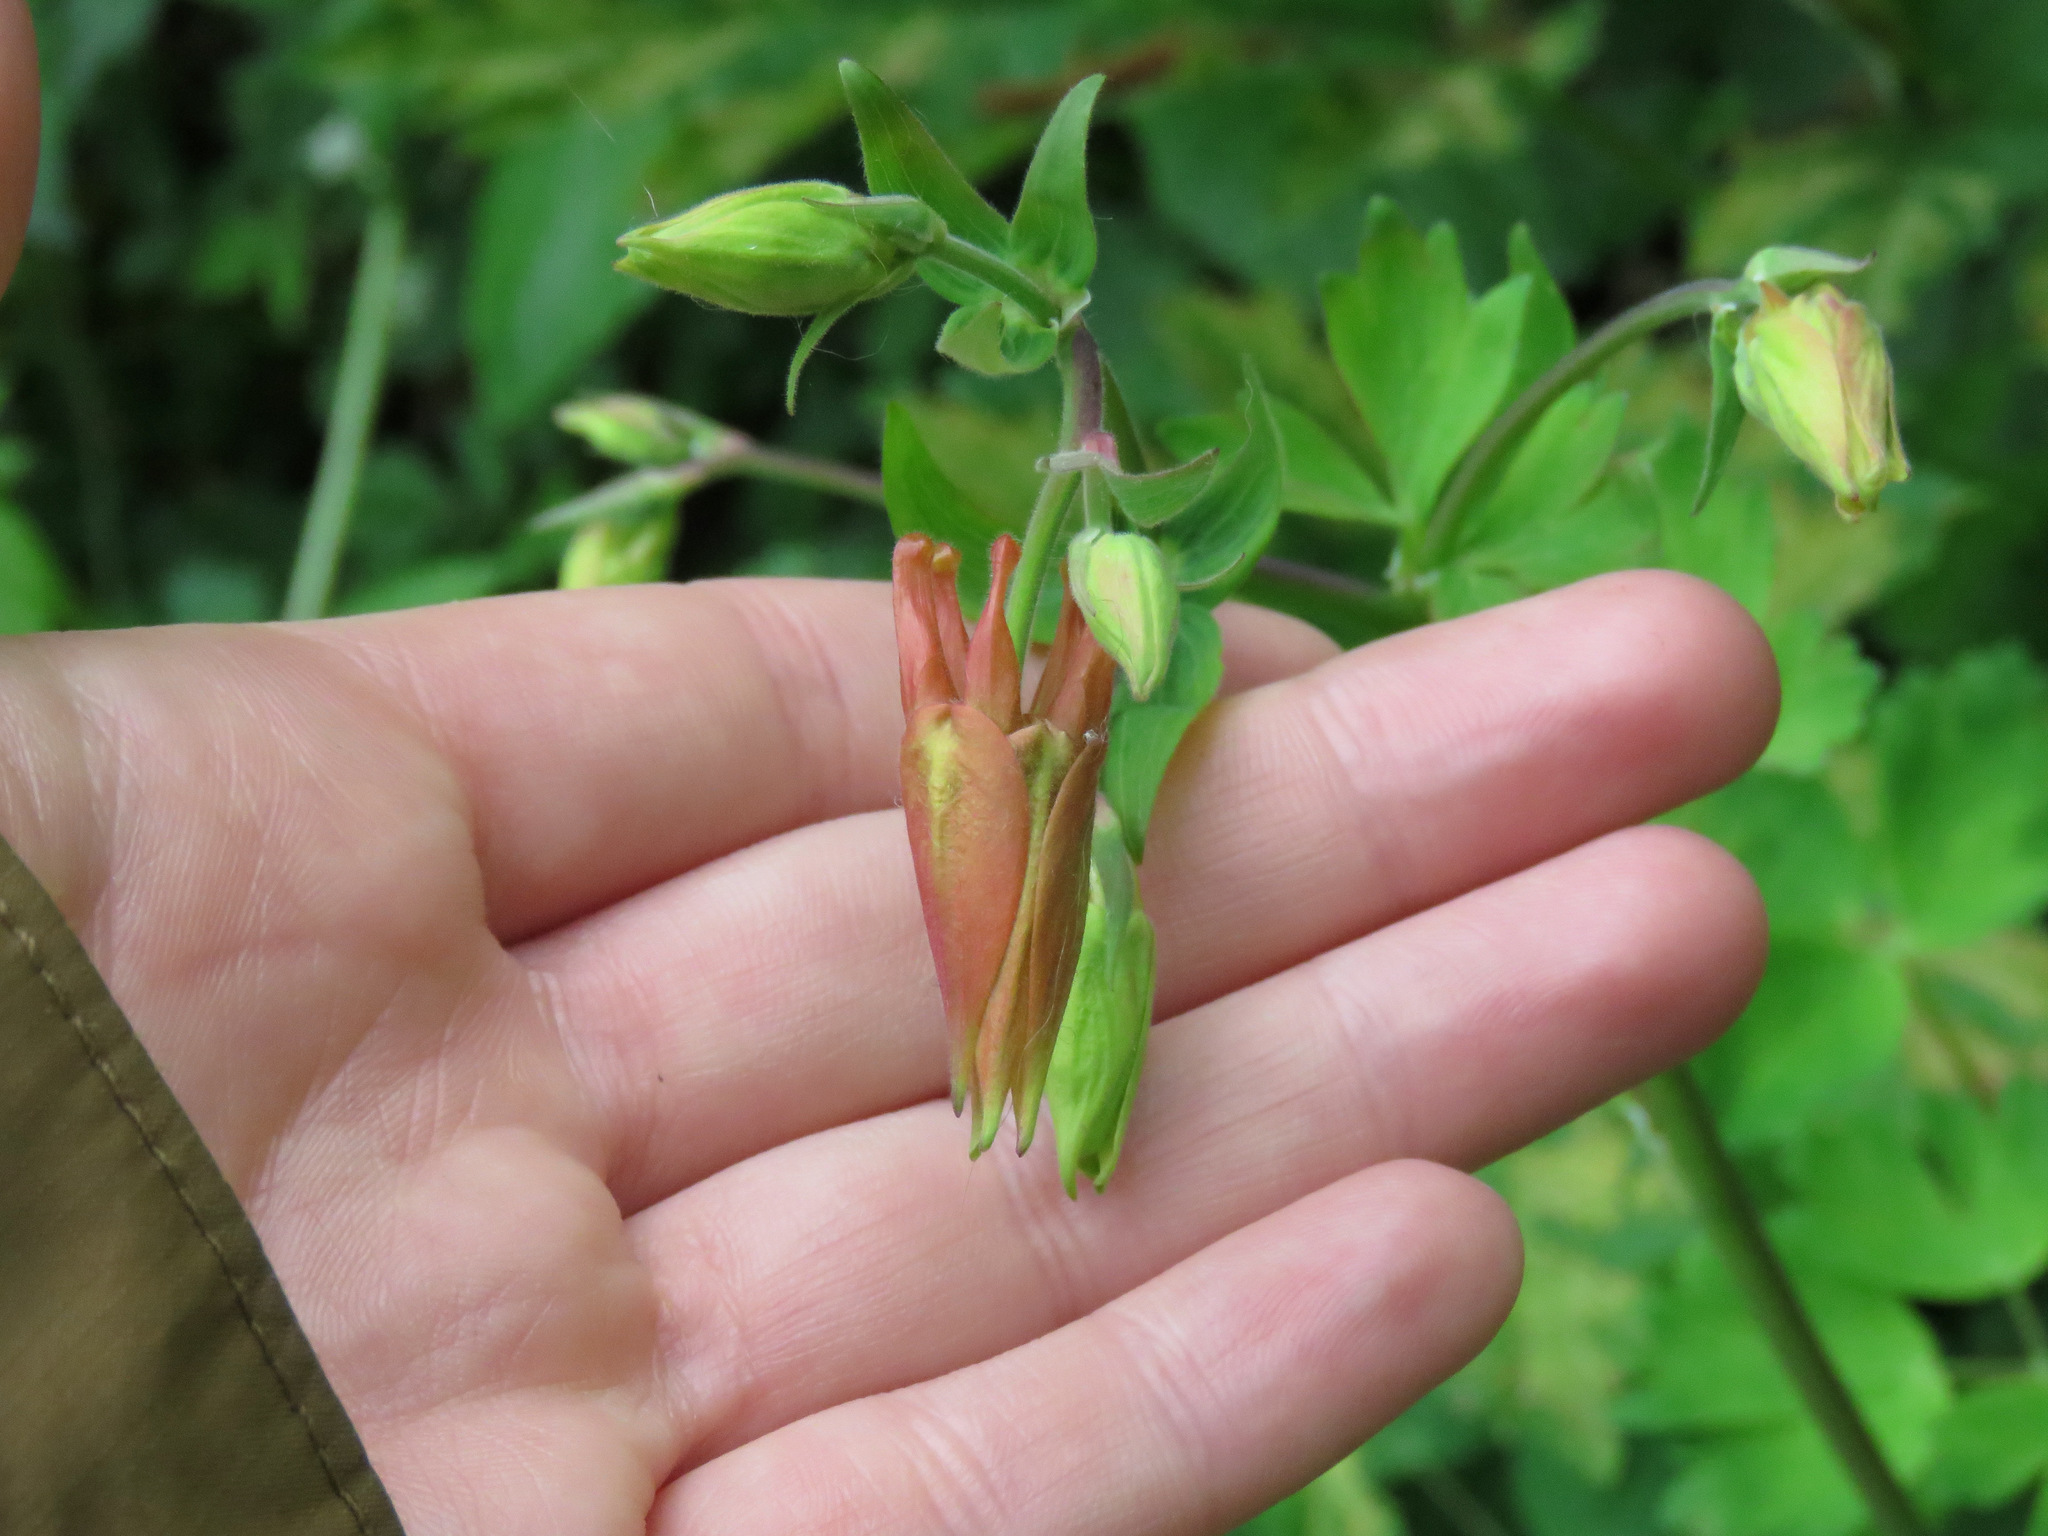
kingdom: Plantae
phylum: Tracheophyta
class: Magnoliopsida
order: Ranunculales
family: Ranunculaceae
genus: Aquilegia
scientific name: Aquilegia formosa
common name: Sitka columbine
